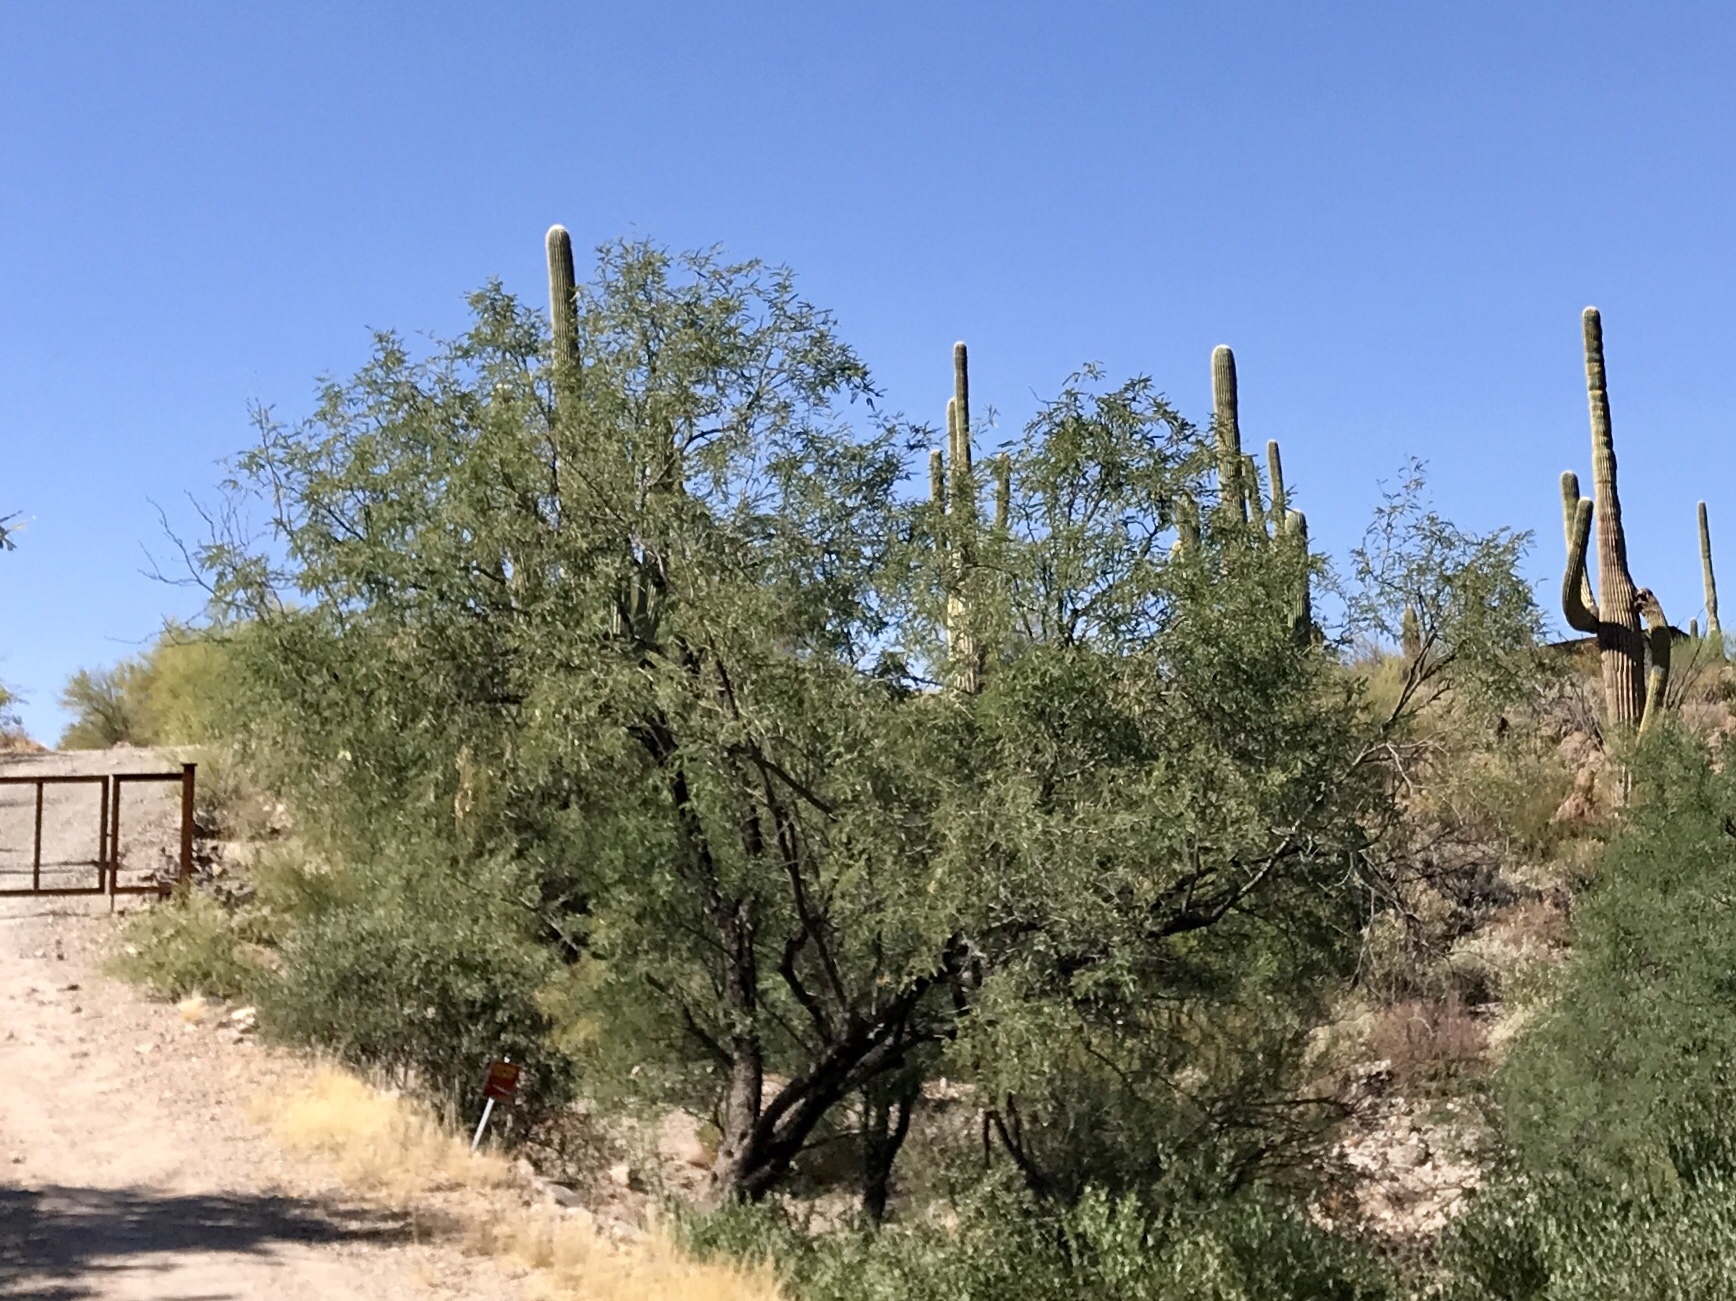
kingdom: Plantae
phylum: Tracheophyta
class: Magnoliopsida
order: Fabales
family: Fabaceae
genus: Olneya
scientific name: Olneya tesota
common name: Desert ironwood
